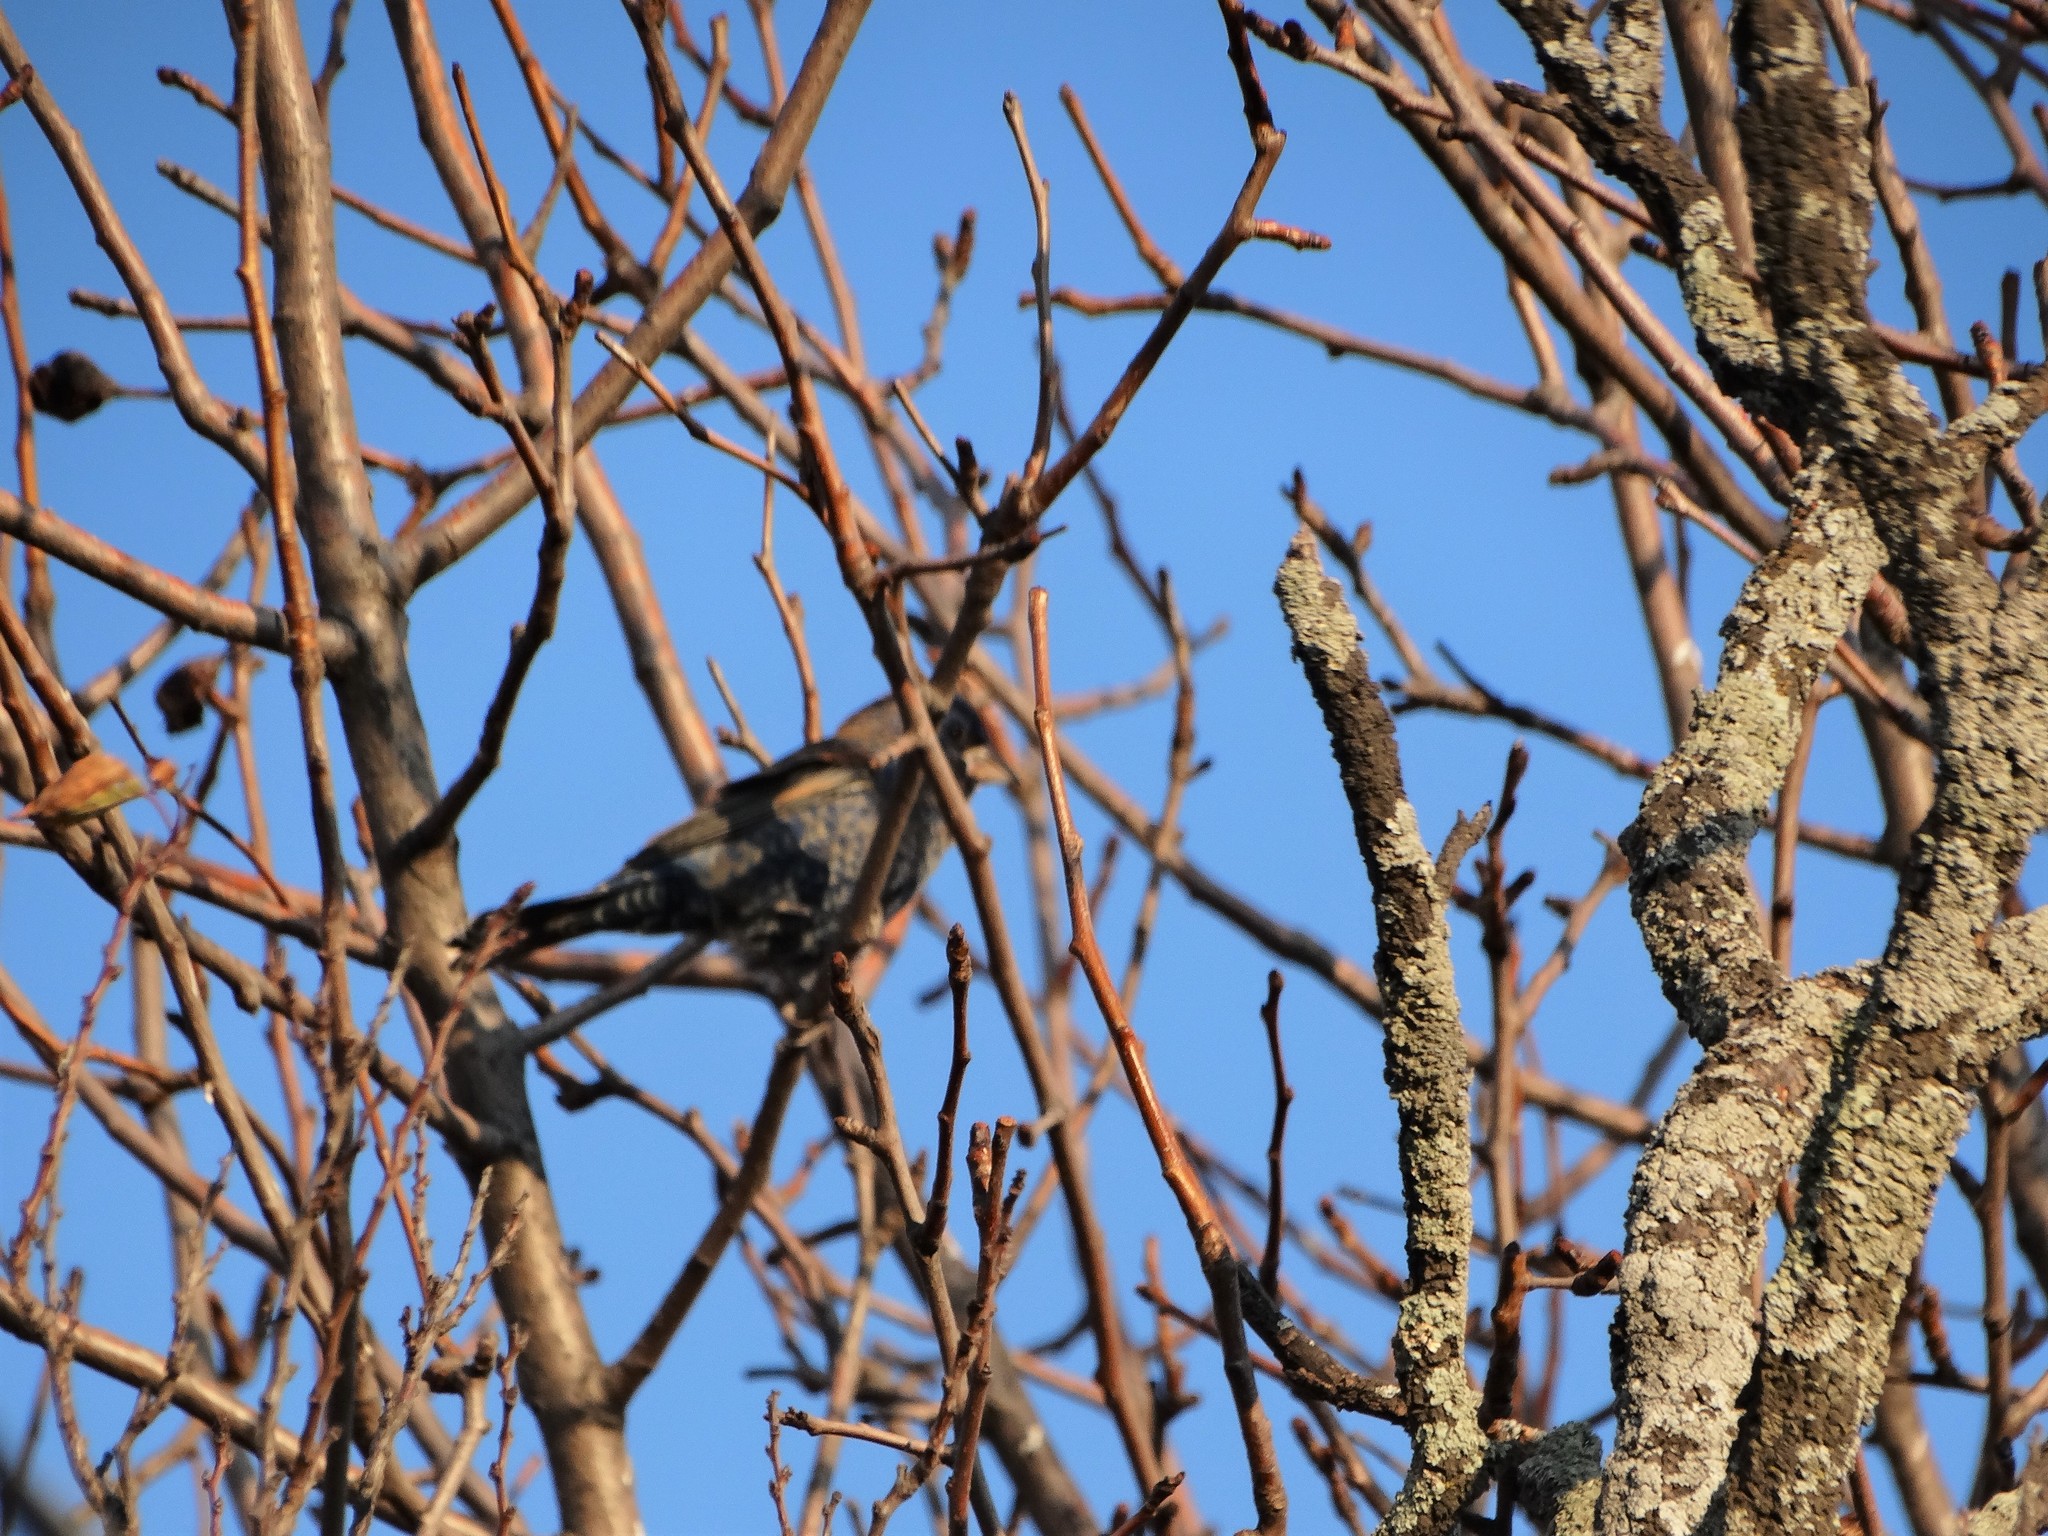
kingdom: Animalia
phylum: Chordata
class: Aves
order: Passeriformes
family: Sturnidae
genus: Sturnus
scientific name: Sturnus vulgaris
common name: Common starling
